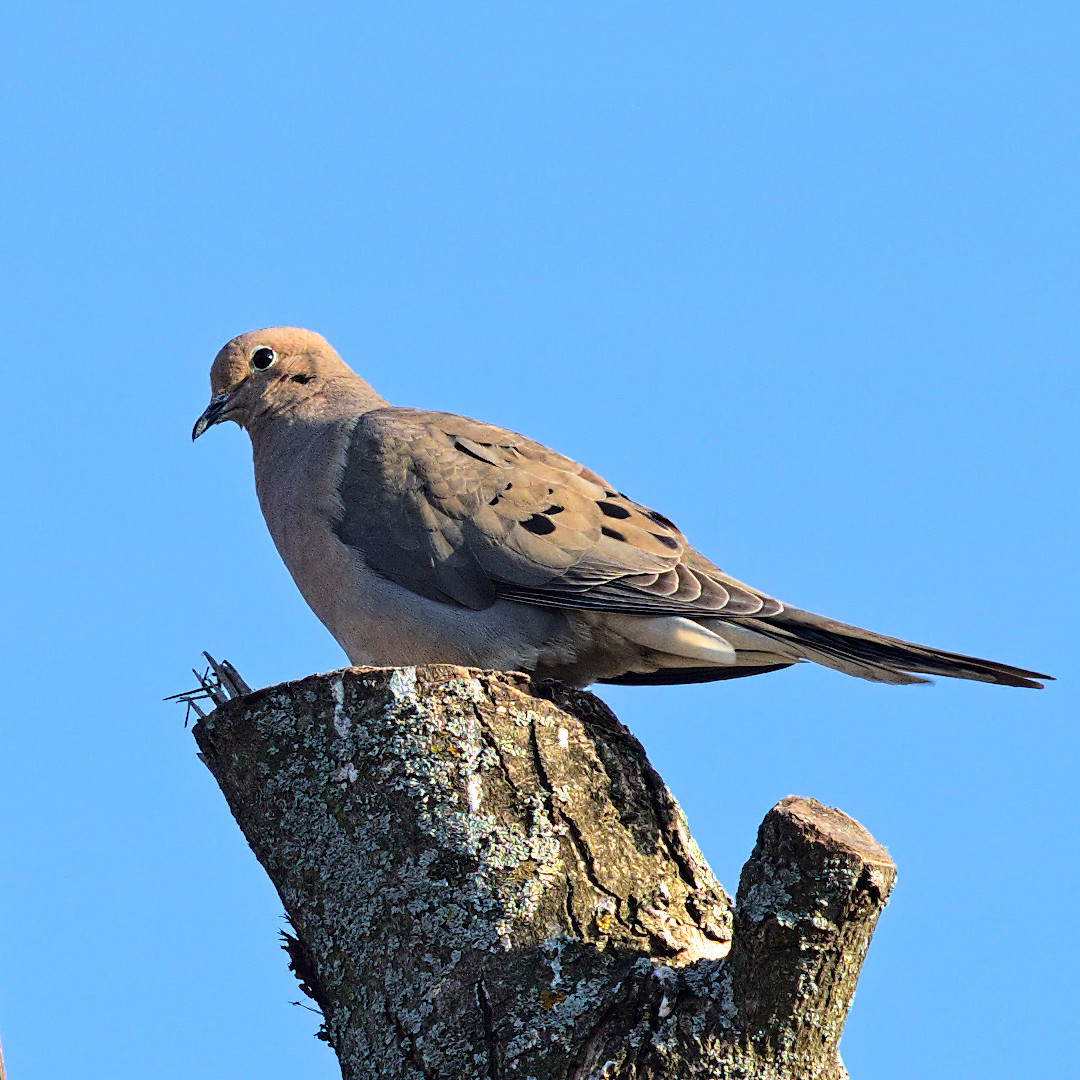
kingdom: Animalia
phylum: Chordata
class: Aves
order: Columbiformes
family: Columbidae
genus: Zenaida
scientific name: Zenaida macroura
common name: Mourning dove
